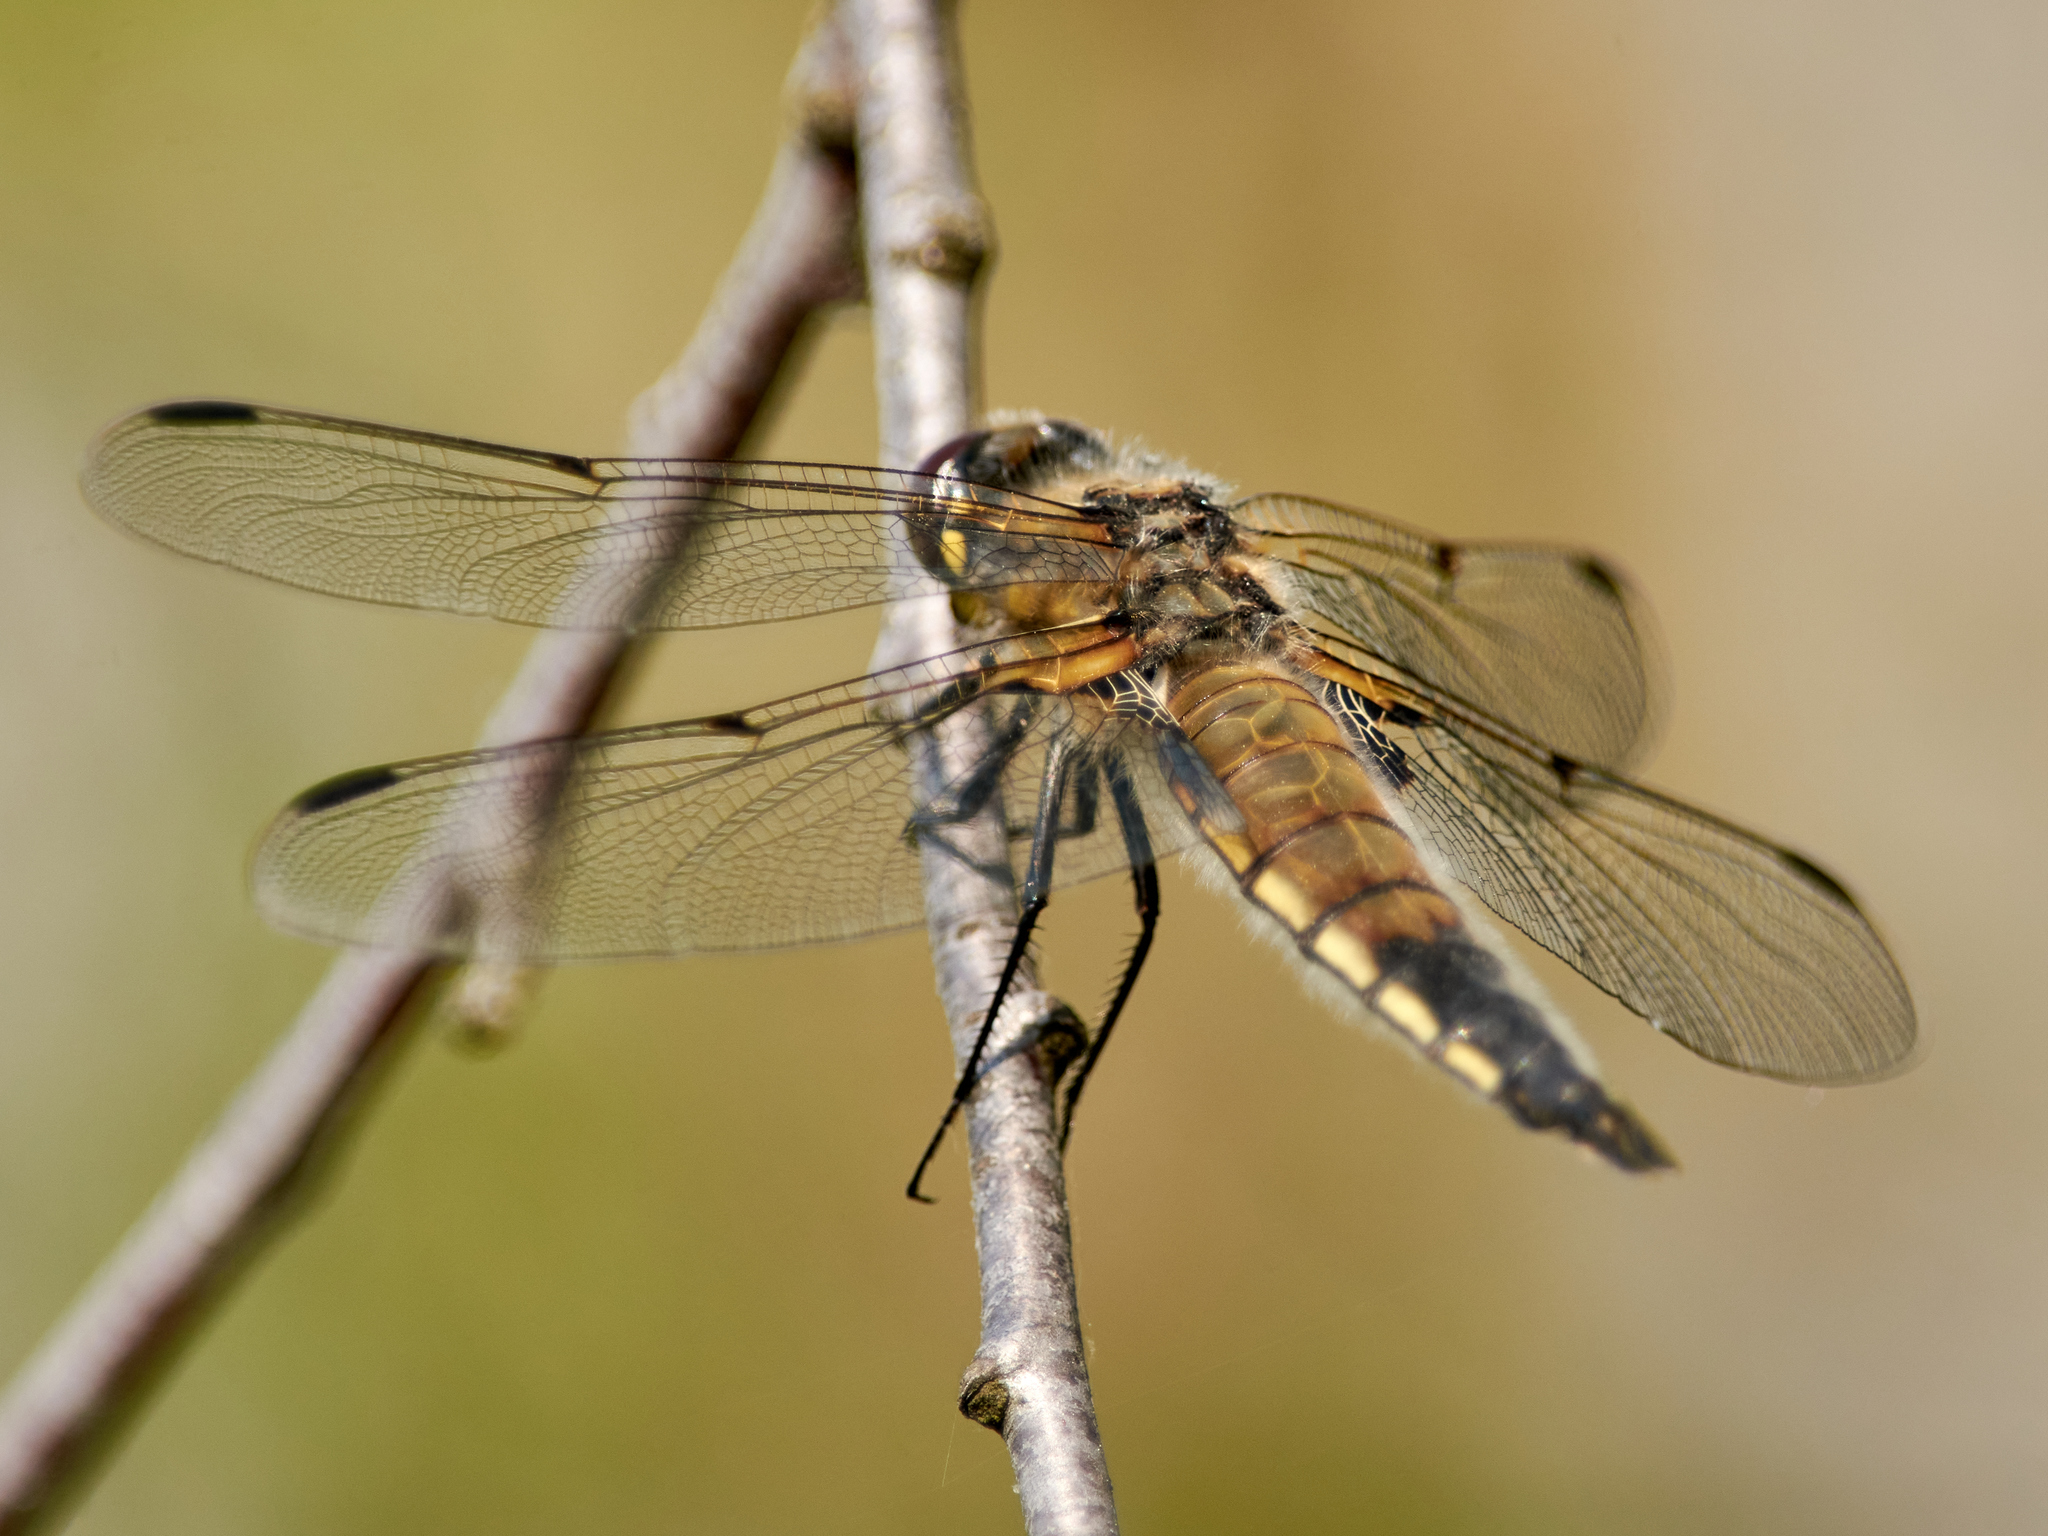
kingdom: Animalia
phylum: Arthropoda
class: Insecta
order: Odonata
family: Libellulidae
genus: Libellula
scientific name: Libellula quadrimaculata
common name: Four-spotted chaser
